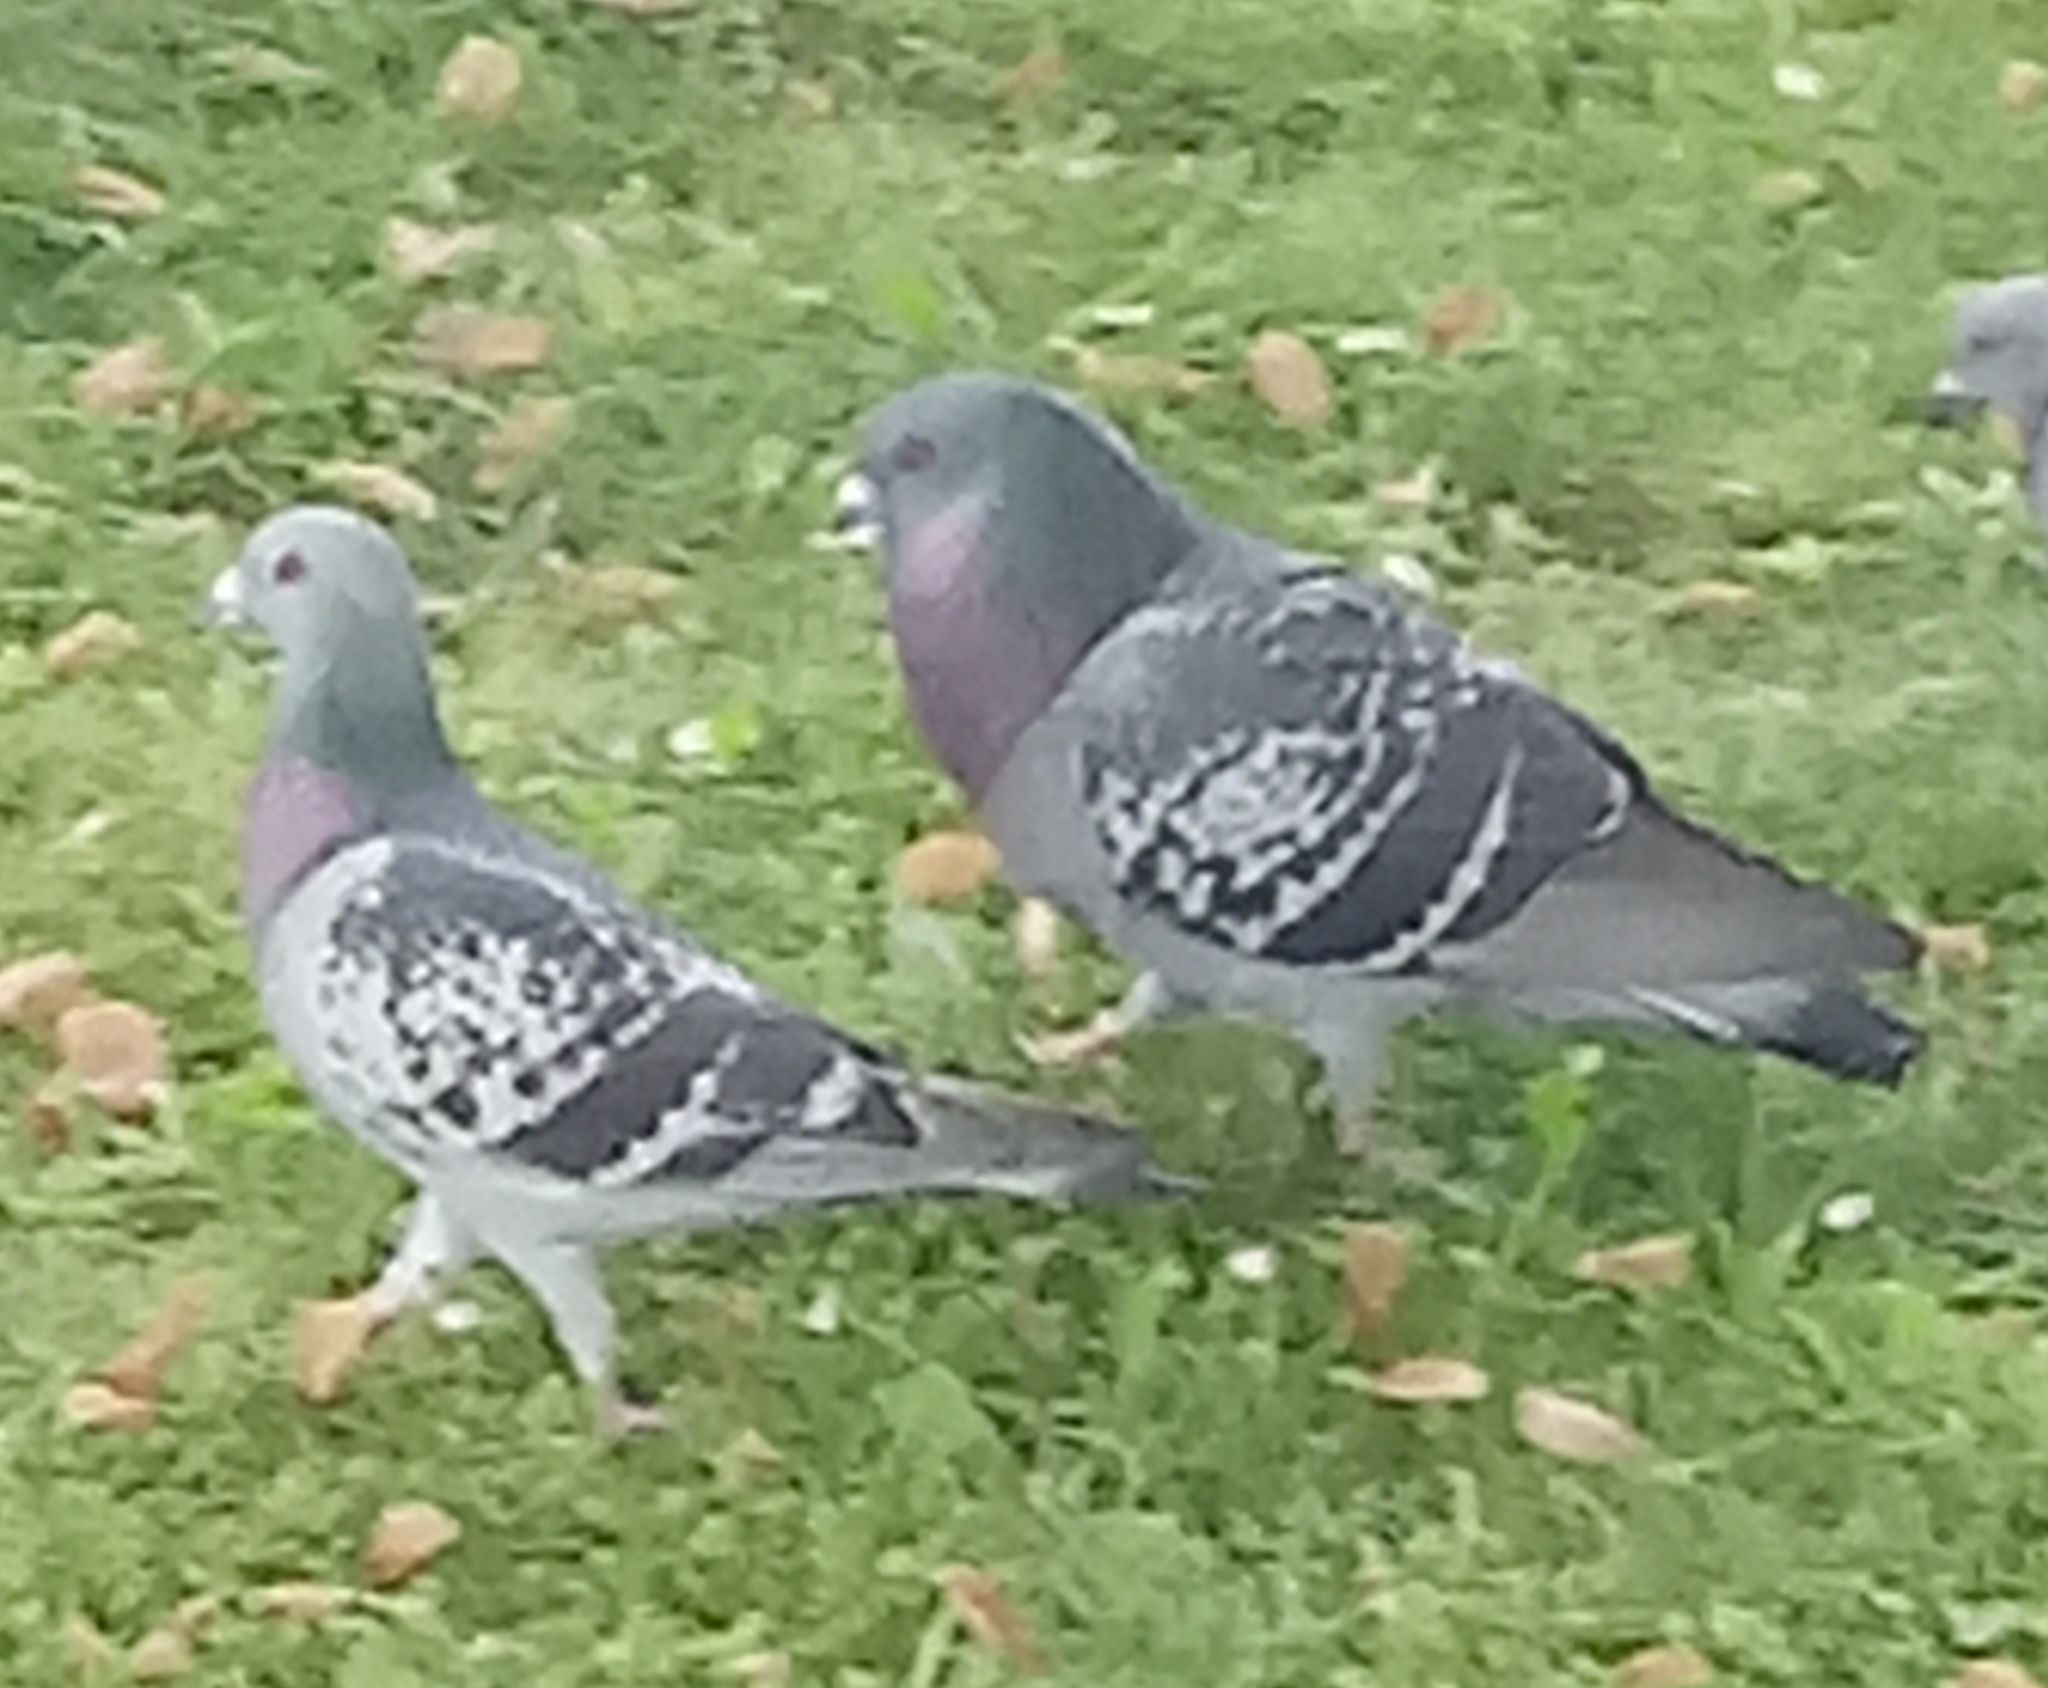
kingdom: Animalia
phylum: Chordata
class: Aves
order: Columbiformes
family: Columbidae
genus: Columba
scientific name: Columba livia
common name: Rock pigeon
